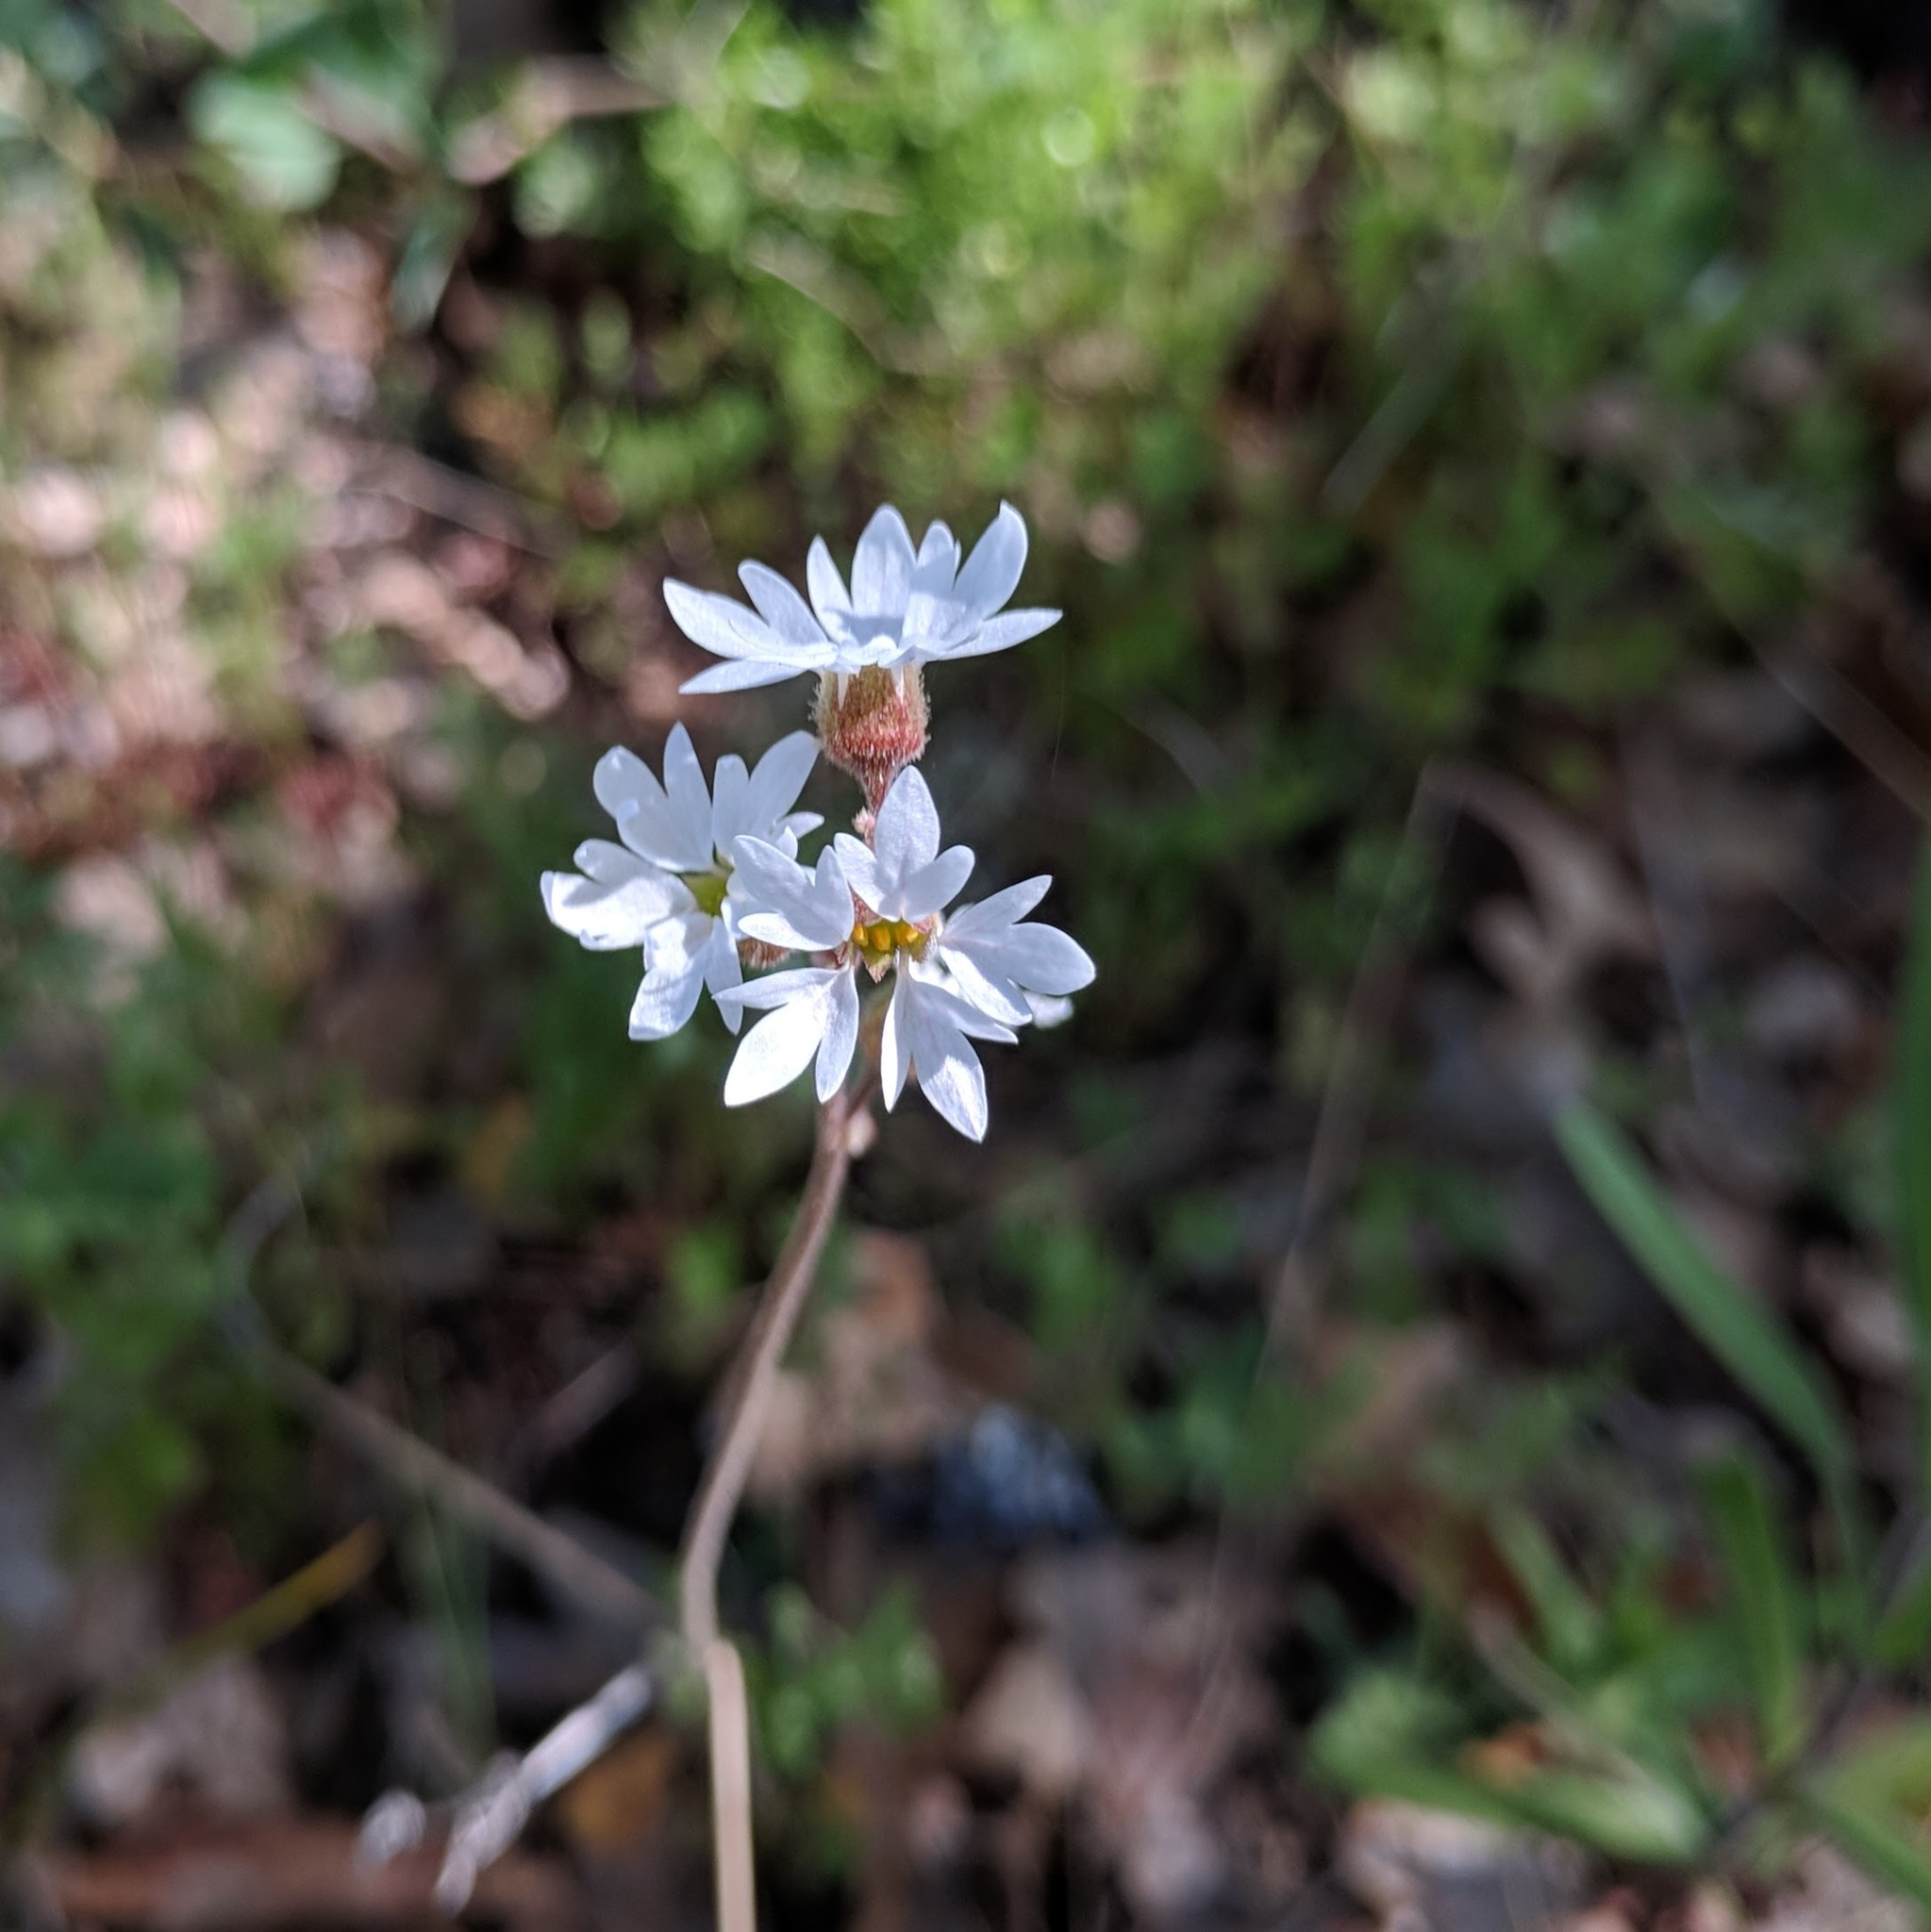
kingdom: Plantae
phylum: Tracheophyta
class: Magnoliopsida
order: Saxifragales
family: Saxifragaceae
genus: Lithophragma
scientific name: Lithophragma heterophyllum
